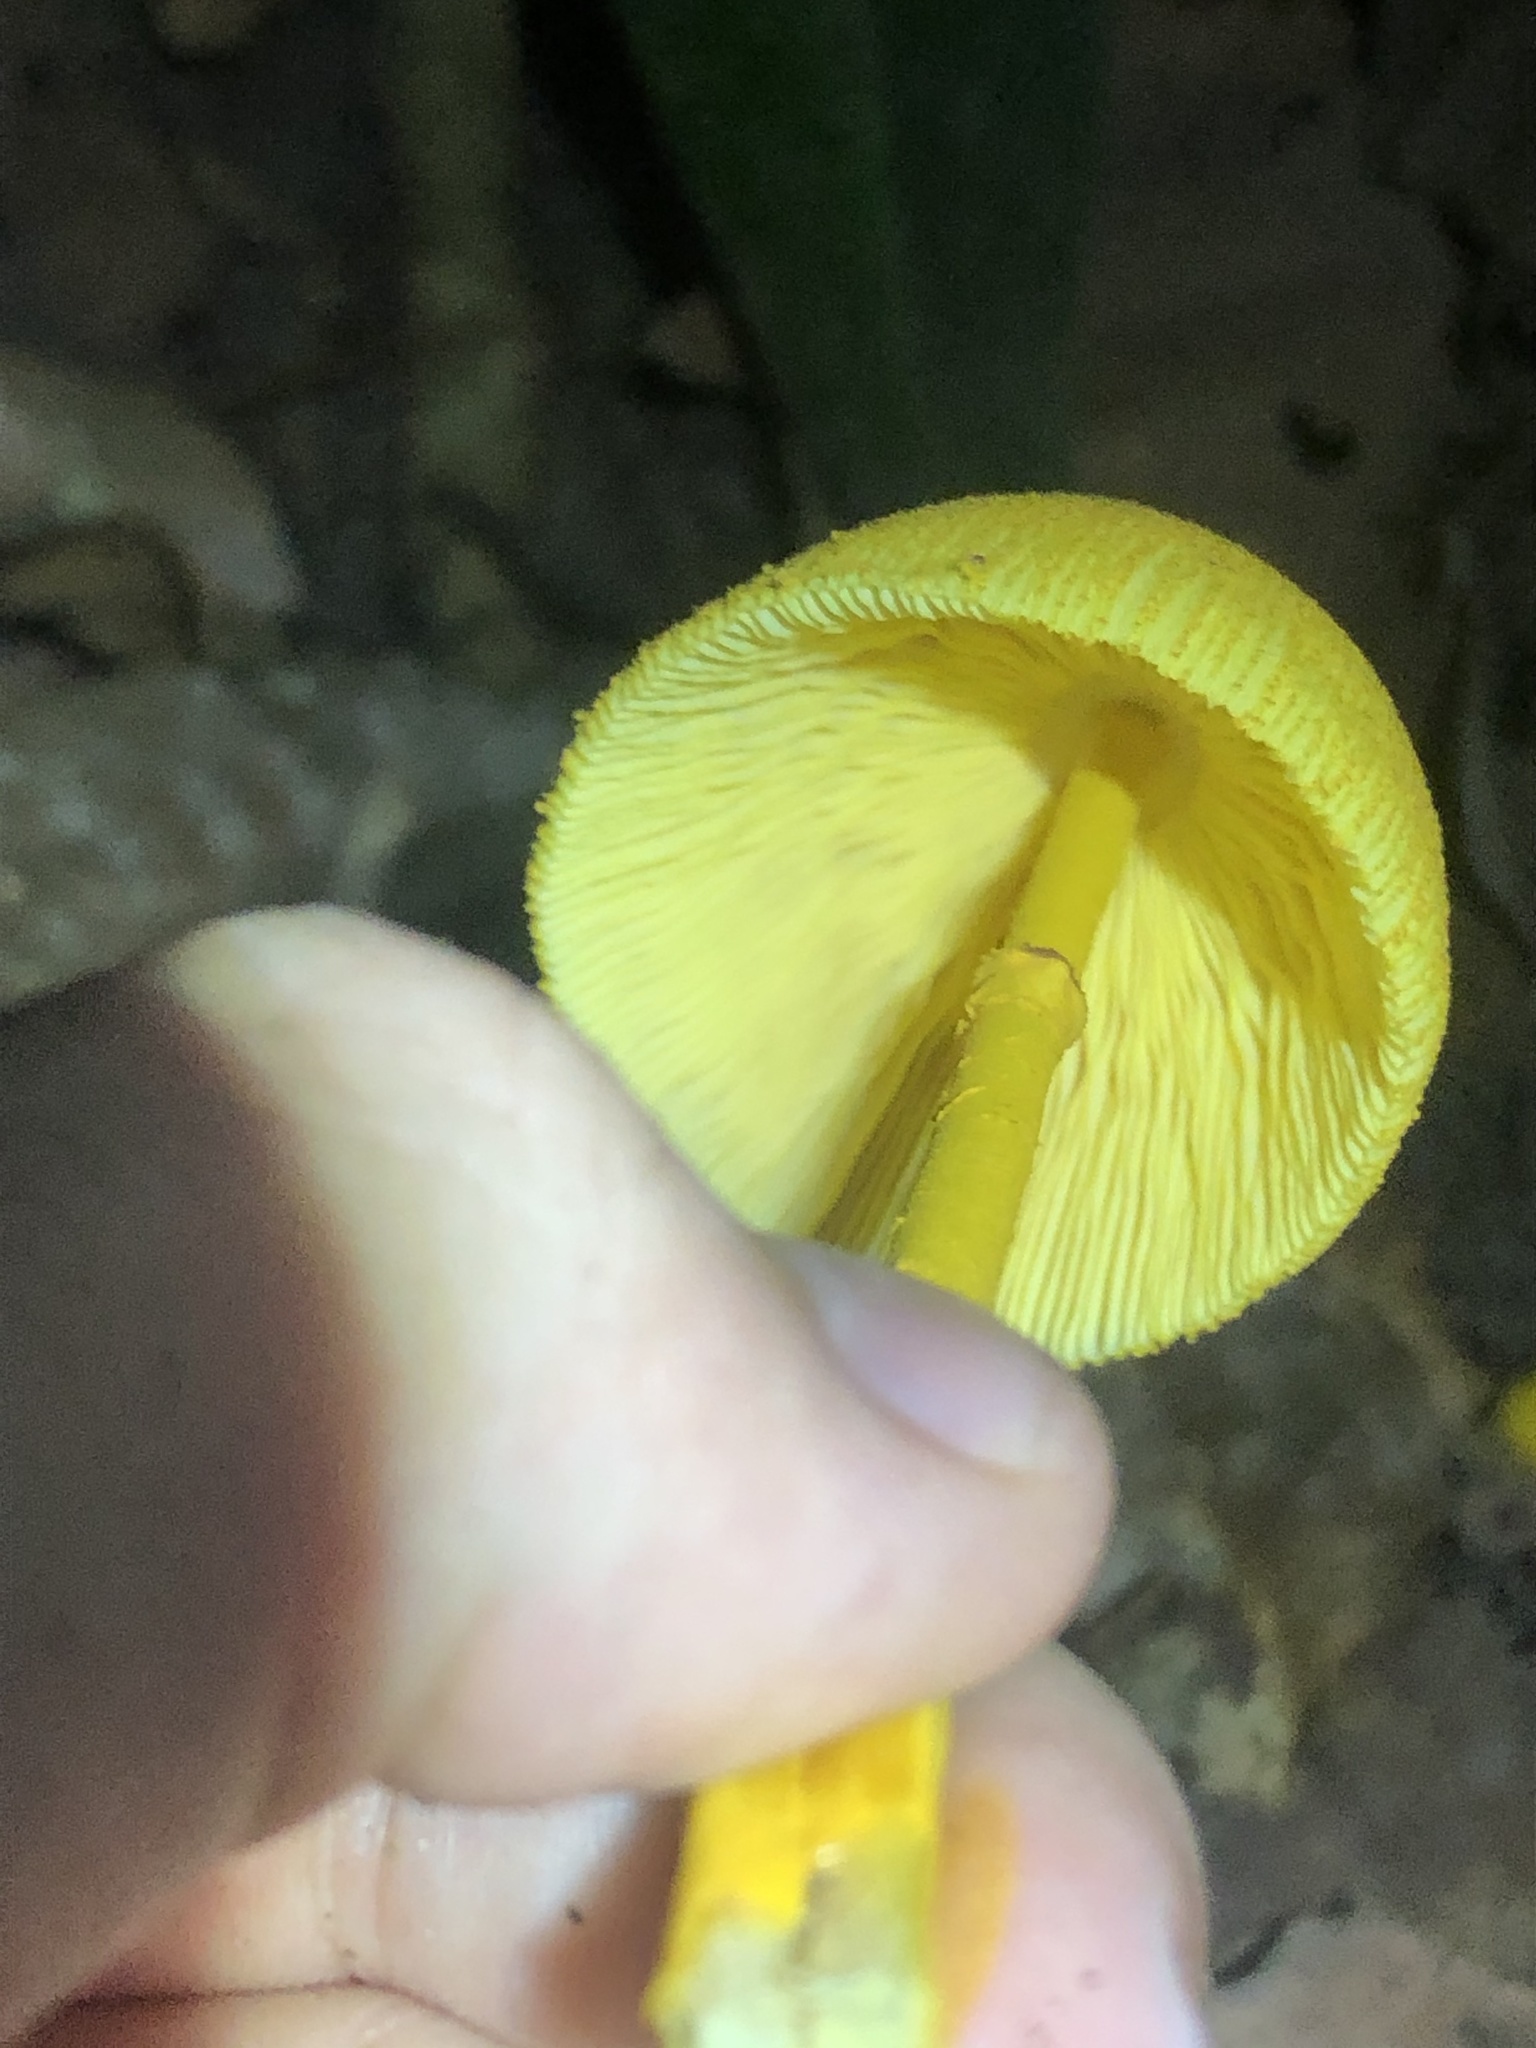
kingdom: Fungi
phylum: Basidiomycota
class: Agaricomycetes
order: Agaricales
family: Agaricaceae
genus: Leucocoprinus
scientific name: Leucocoprinus brunneoluteus
